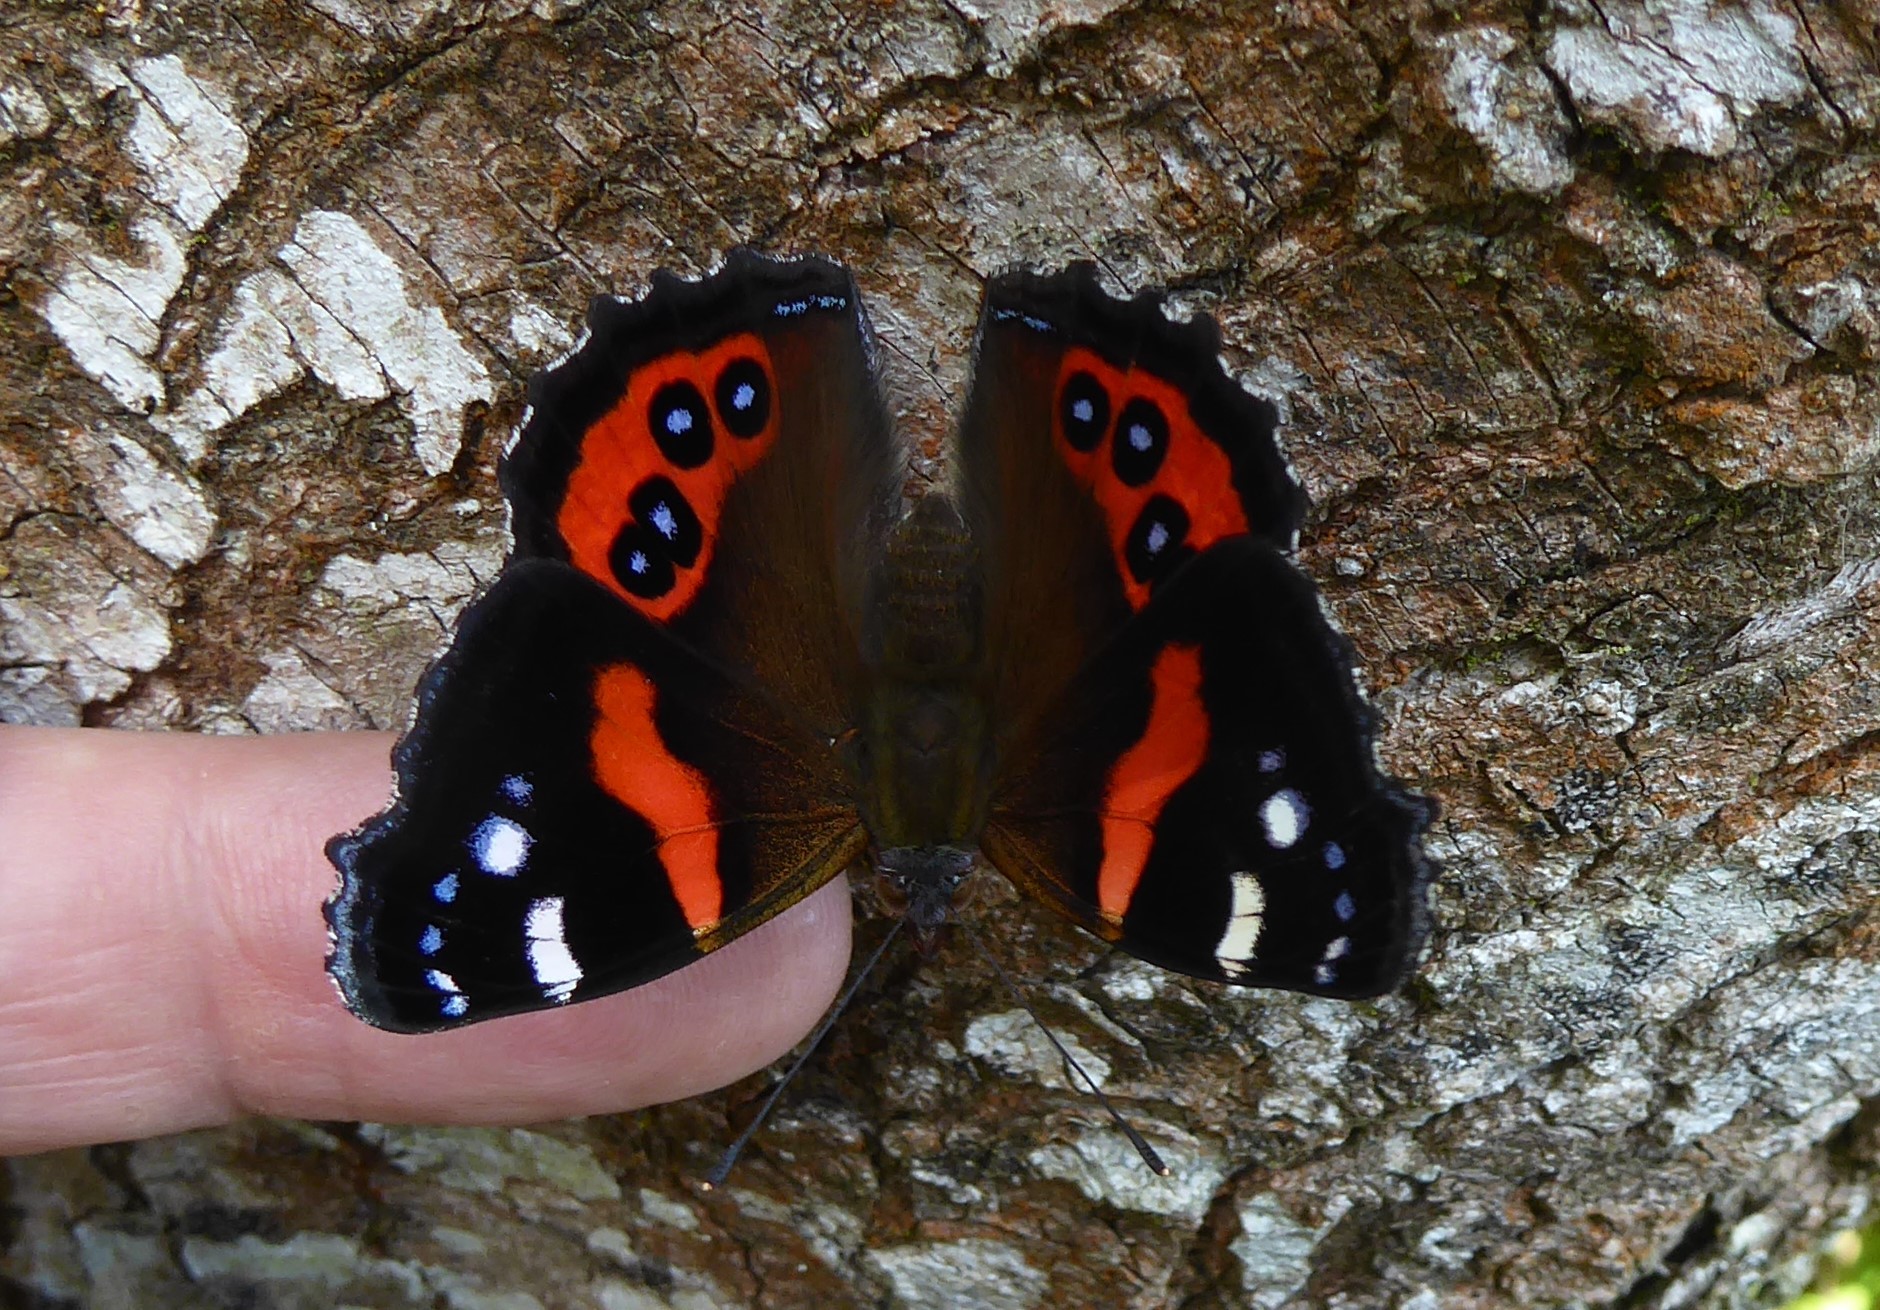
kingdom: Animalia
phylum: Arthropoda
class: Insecta
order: Lepidoptera
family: Nymphalidae
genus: Vanessa
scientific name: Vanessa gonerilla
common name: New zealand red admiral
